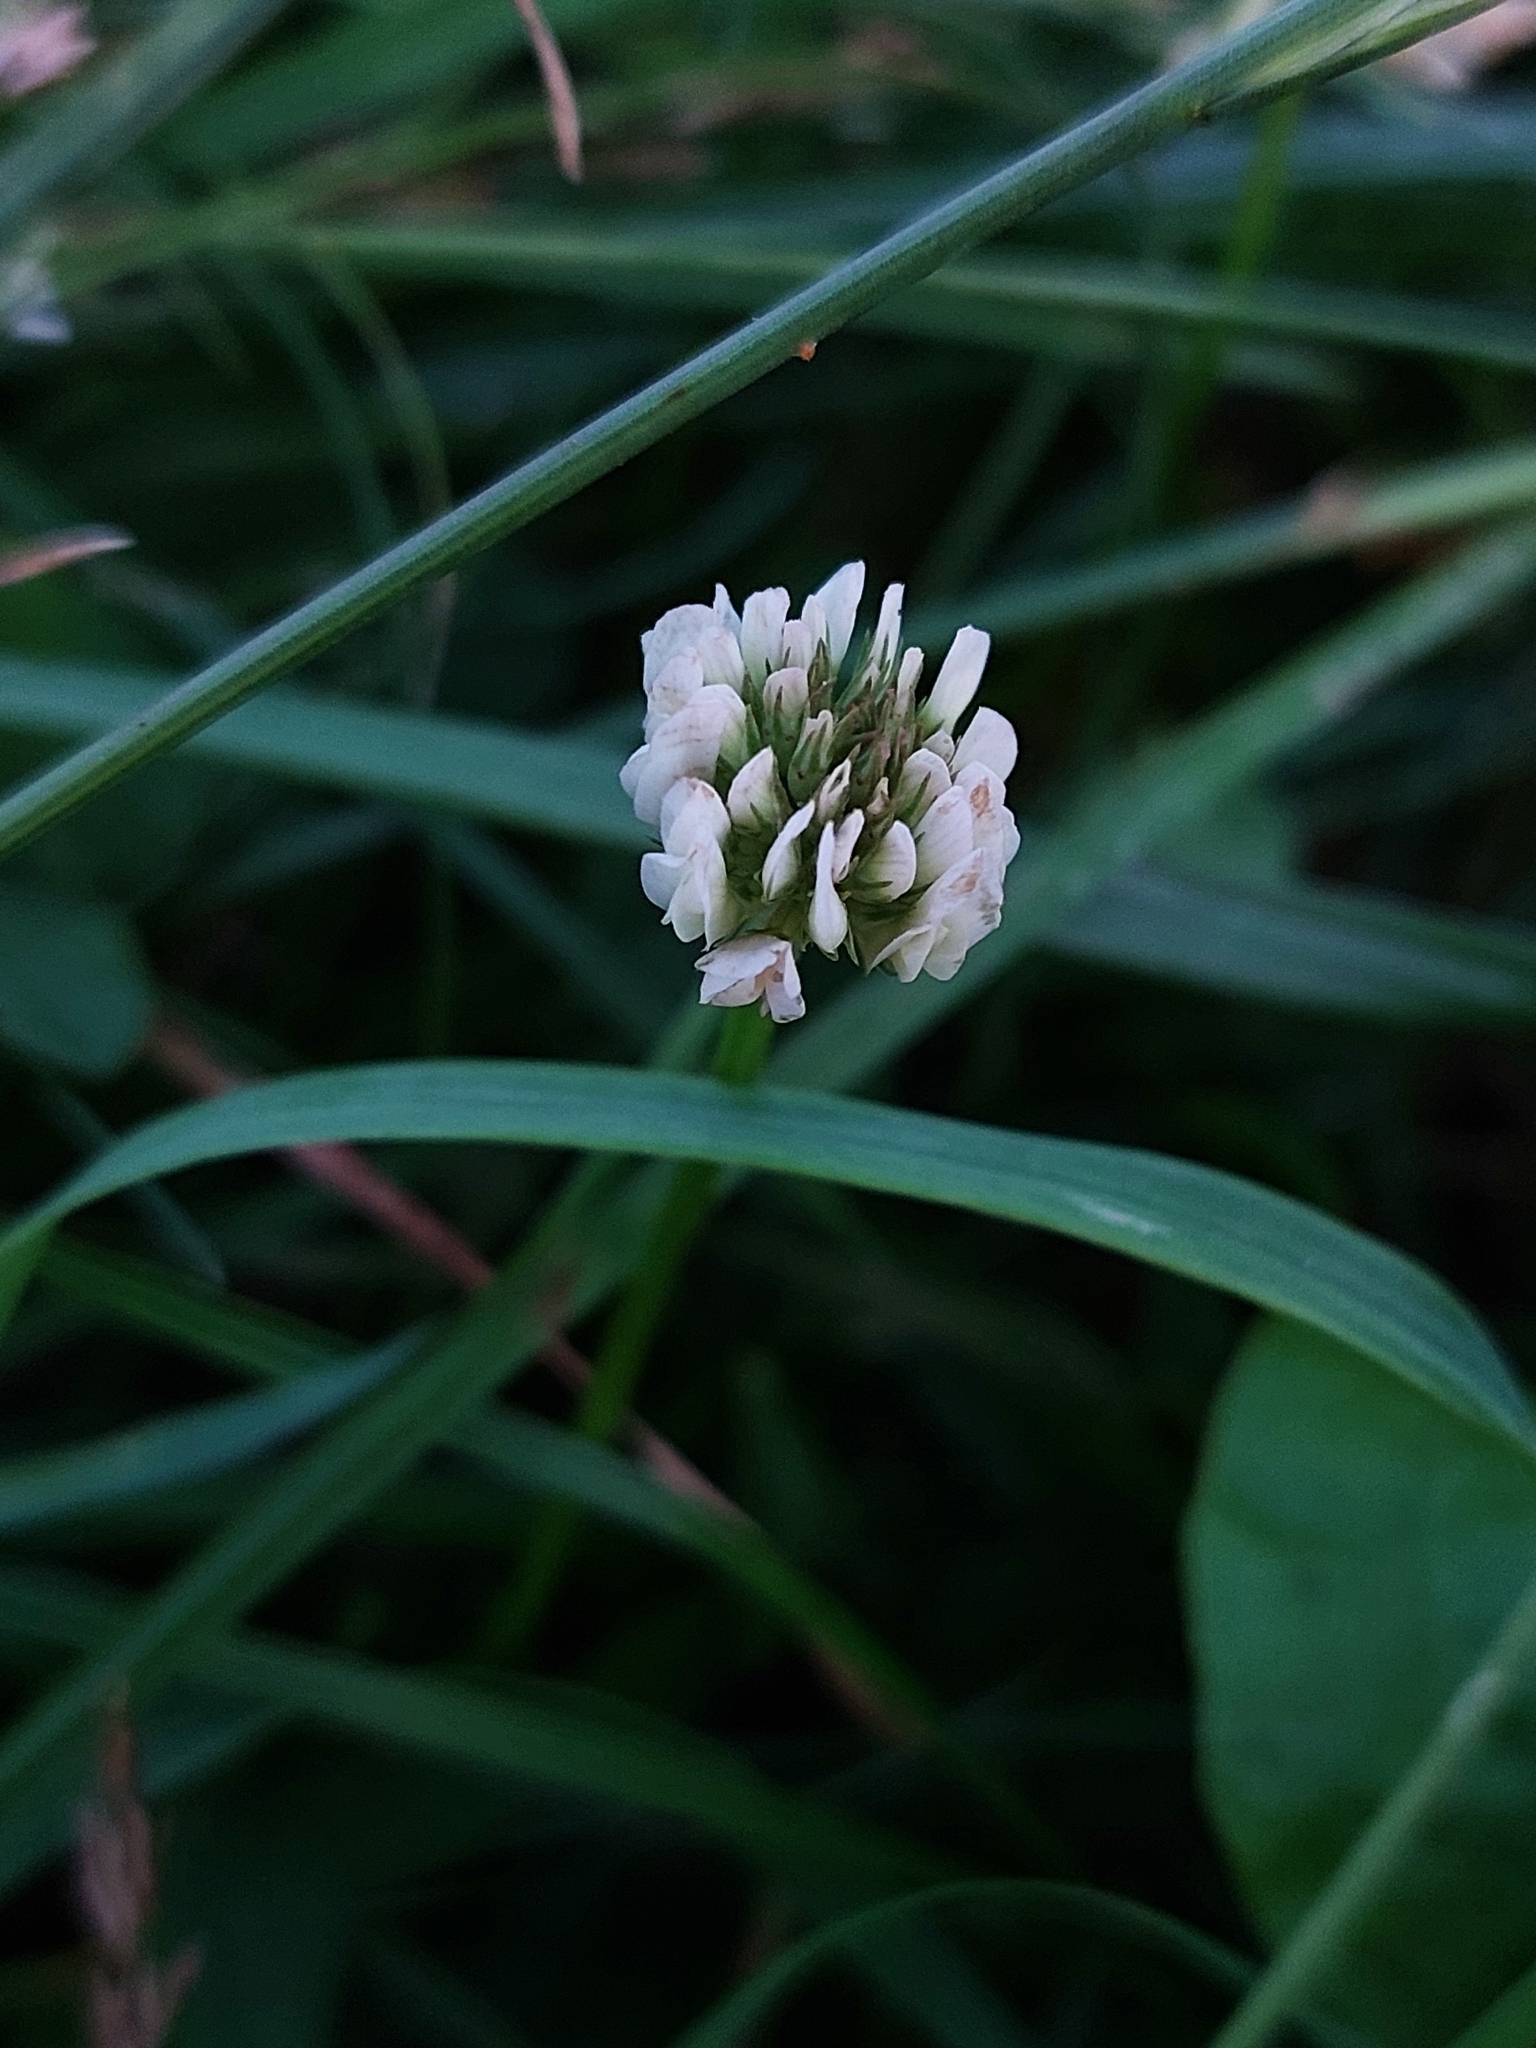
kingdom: Plantae
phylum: Tracheophyta
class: Magnoliopsida
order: Fabales
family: Fabaceae
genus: Trifolium
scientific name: Trifolium repens
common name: White clover
